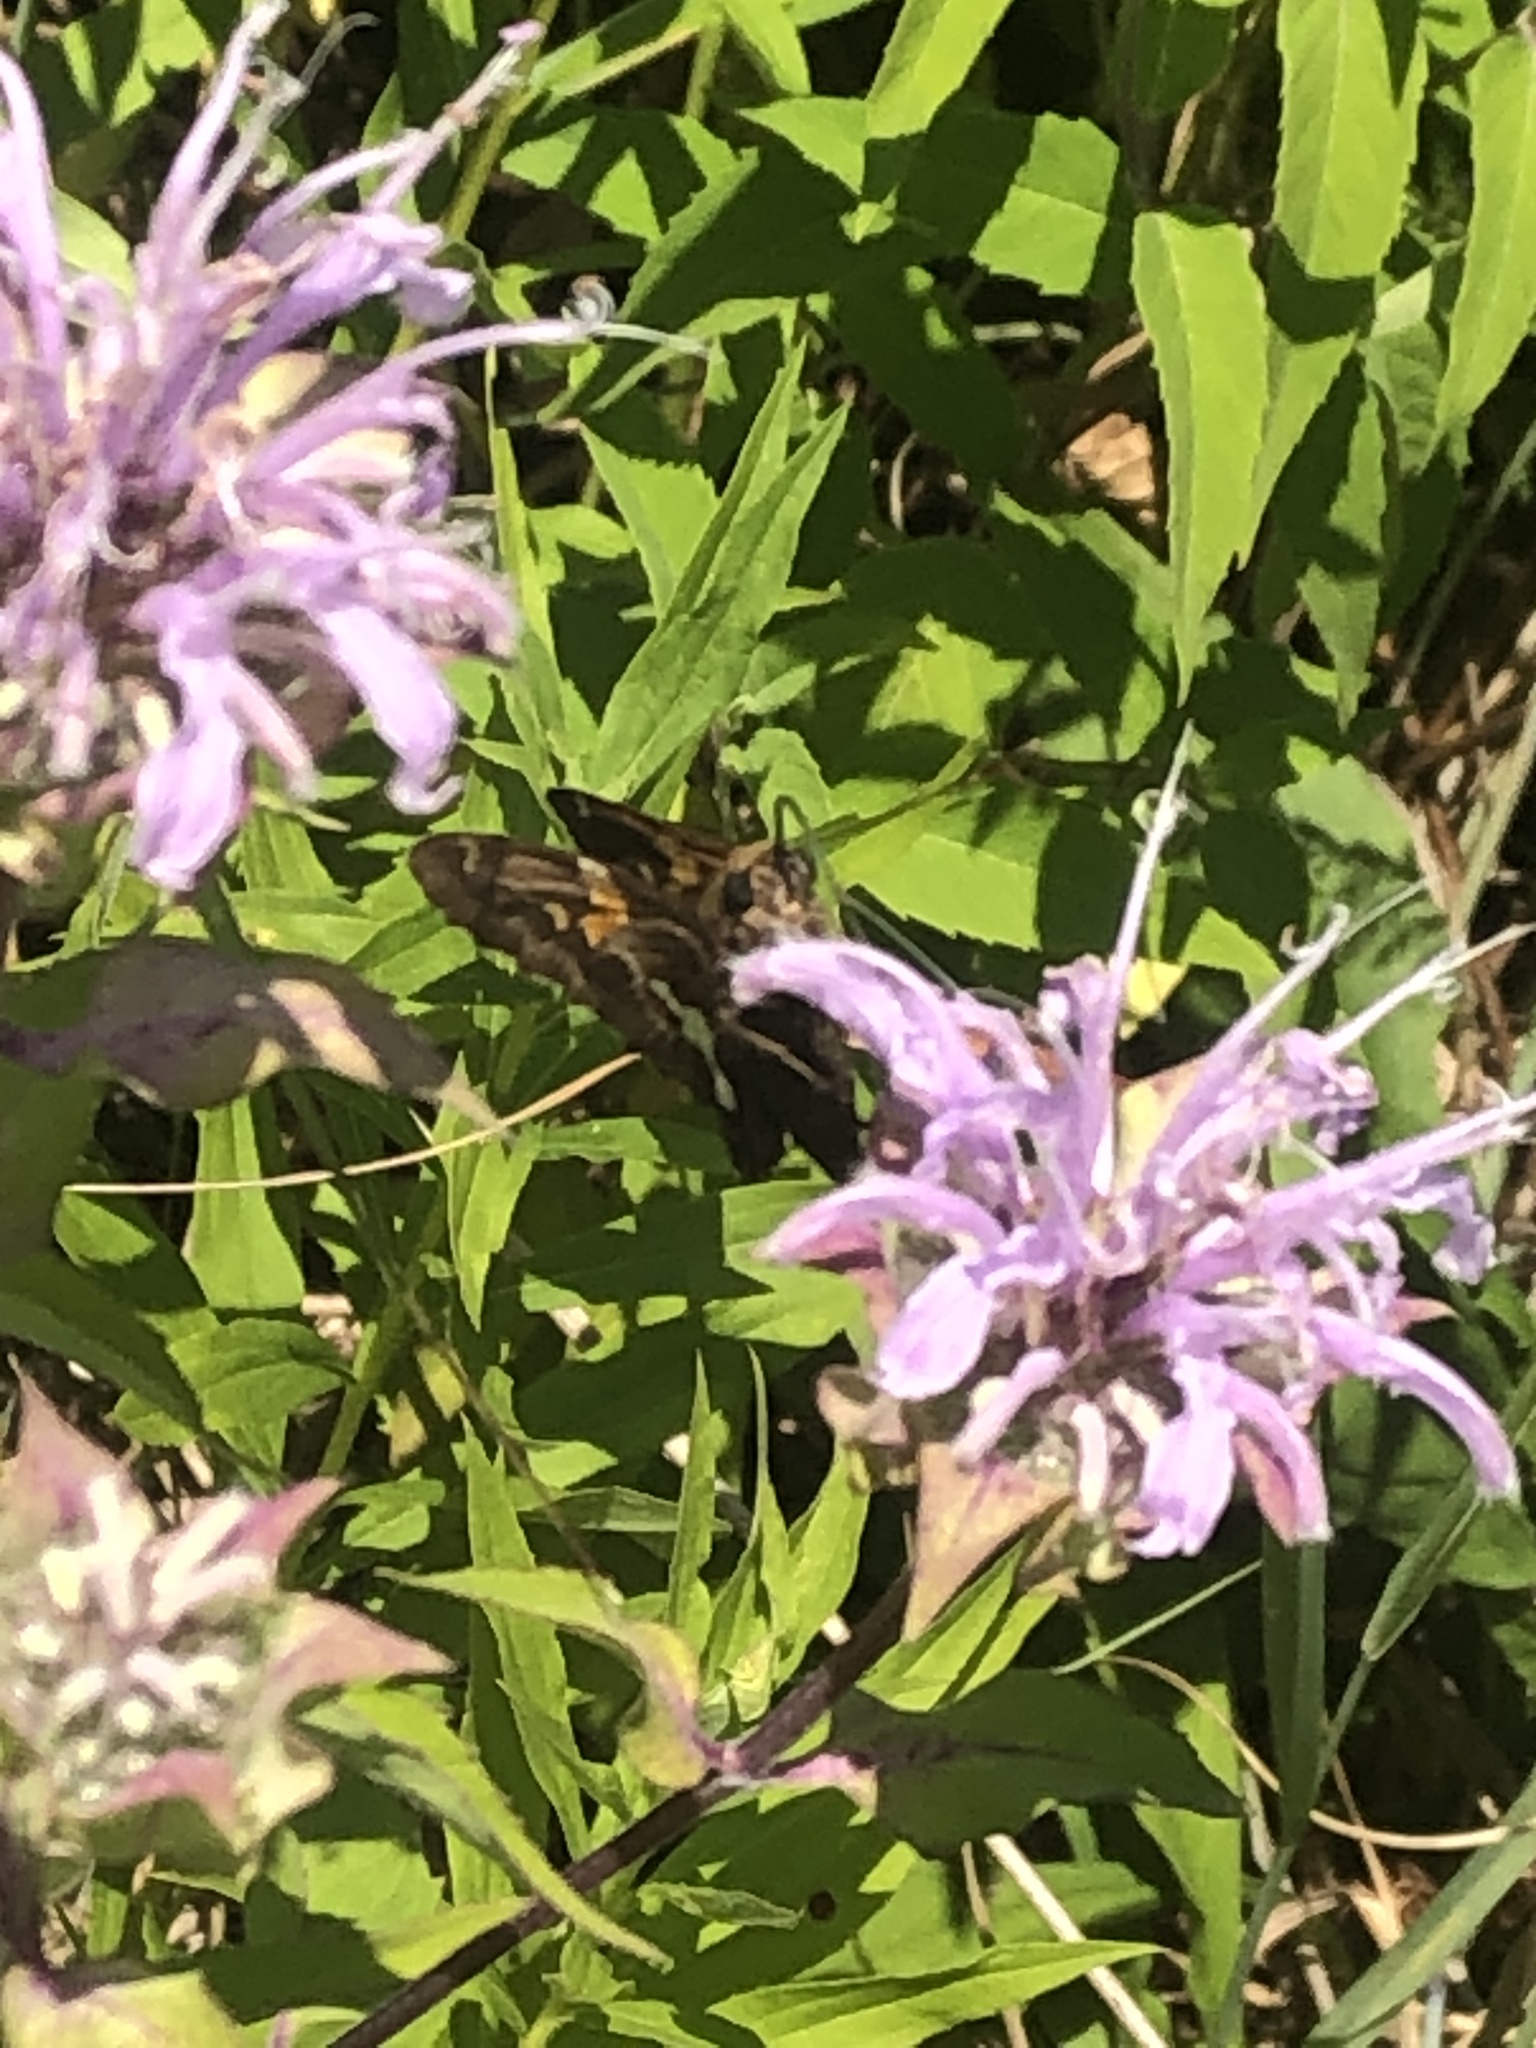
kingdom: Animalia
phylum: Arthropoda
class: Insecta
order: Lepidoptera
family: Hesperiidae
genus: Epargyreus
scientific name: Epargyreus clarus
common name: Silver-spotted skipper
